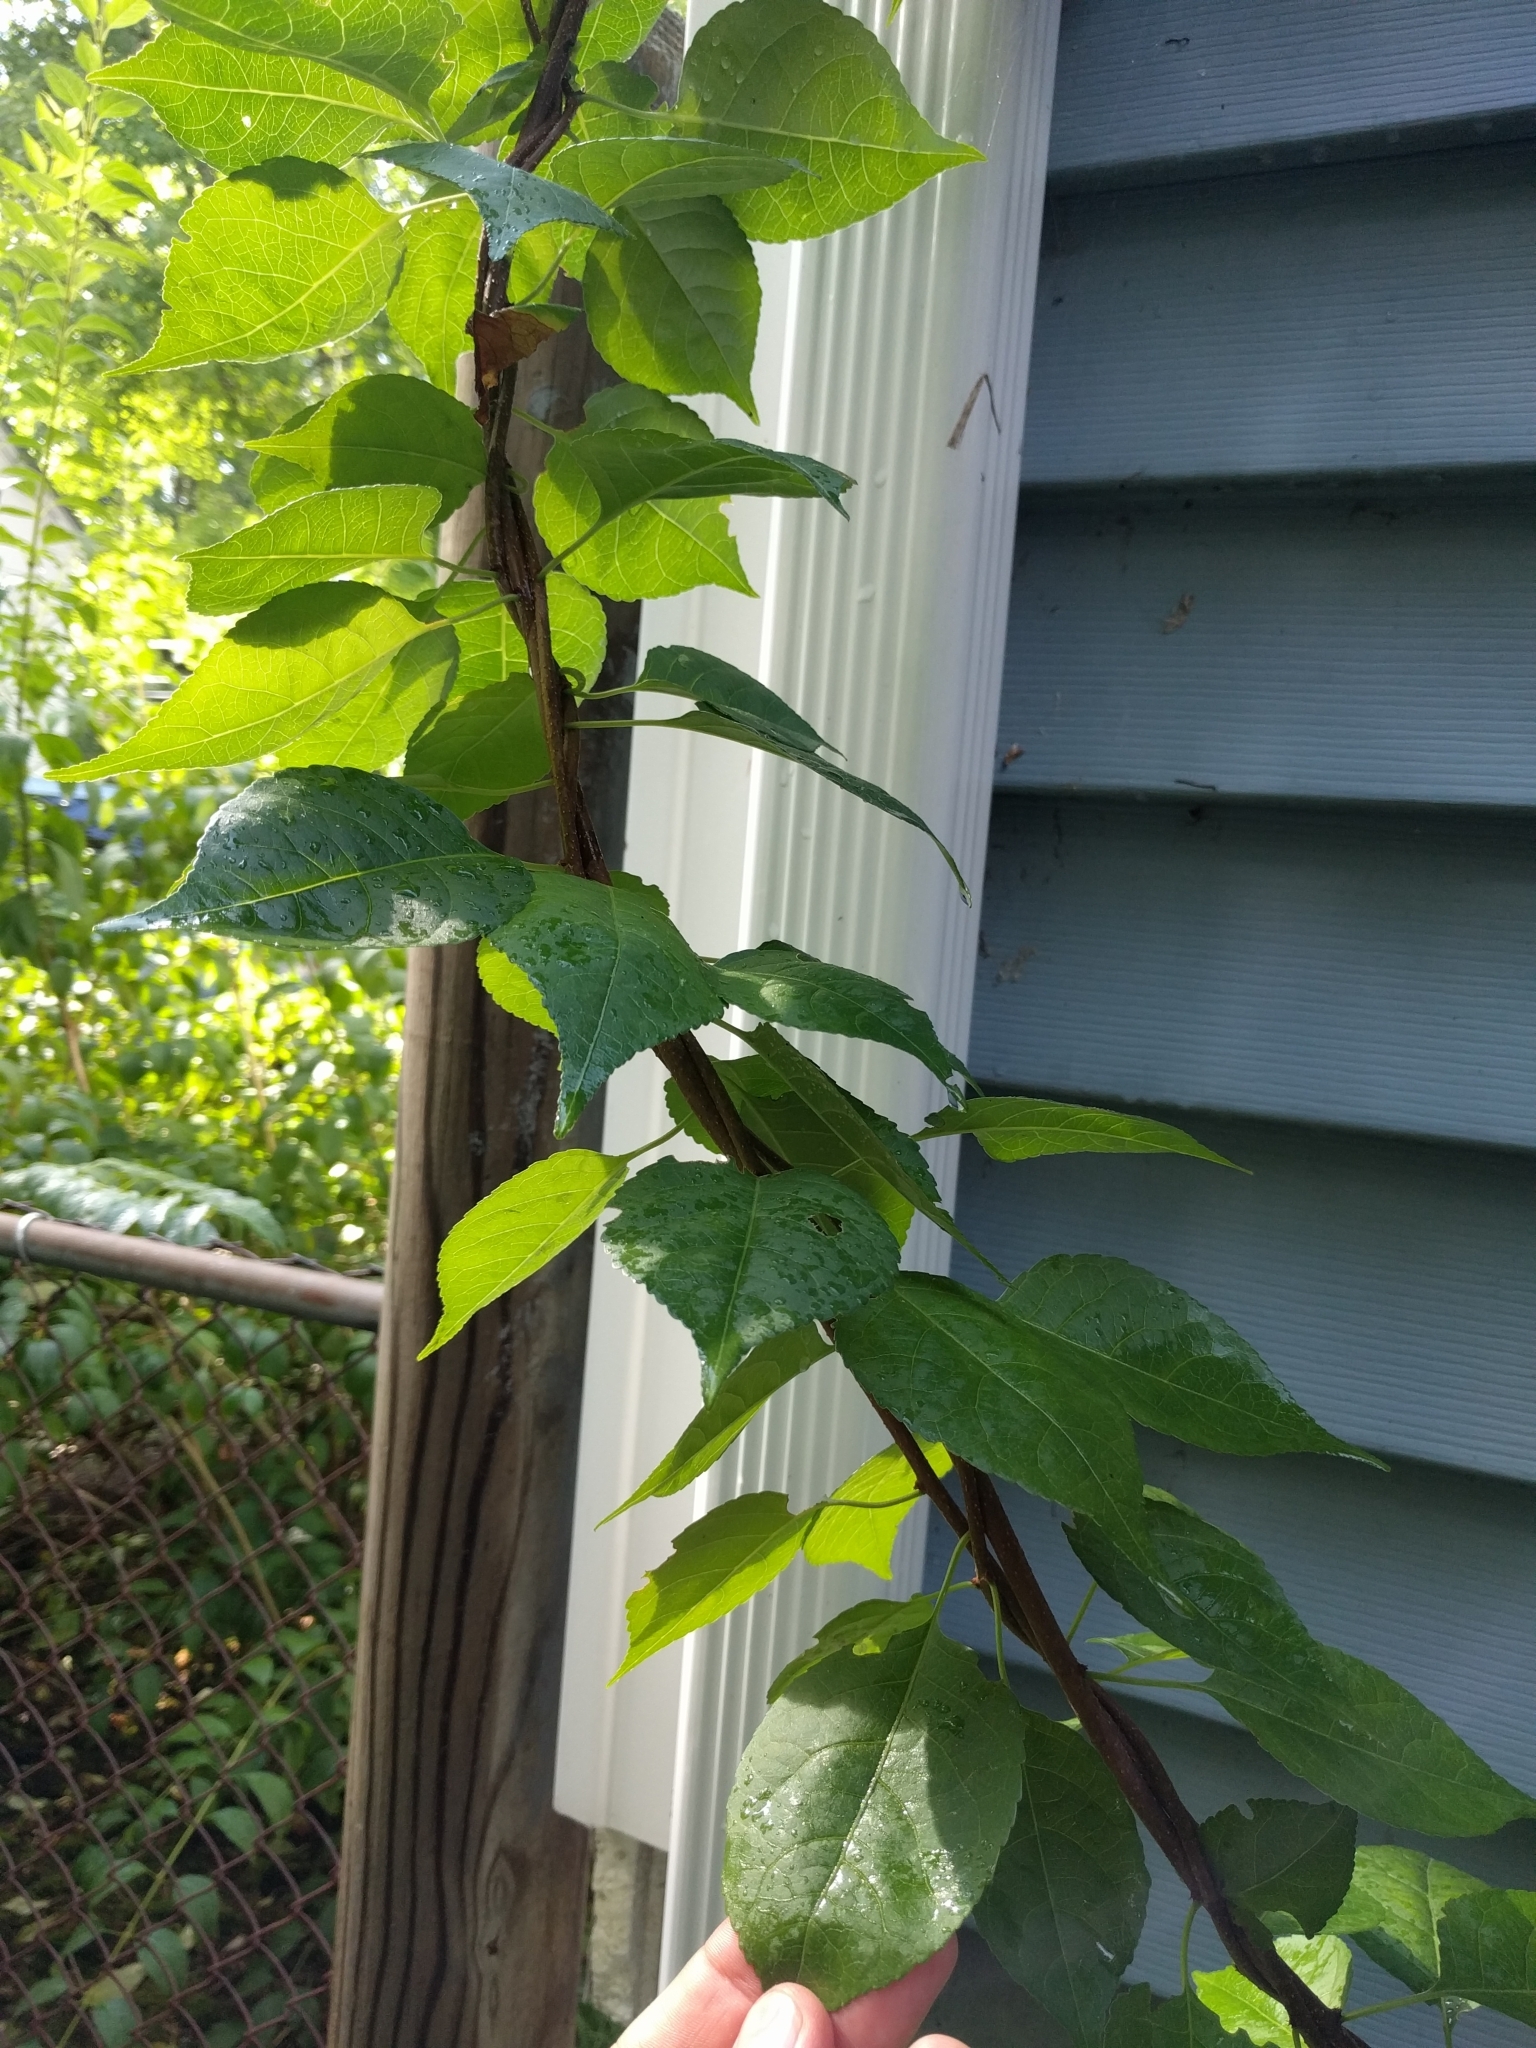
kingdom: Plantae
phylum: Tracheophyta
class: Magnoliopsida
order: Celastrales
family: Celastraceae
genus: Celastrus
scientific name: Celastrus orbiculatus
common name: Oriental bittersweet
